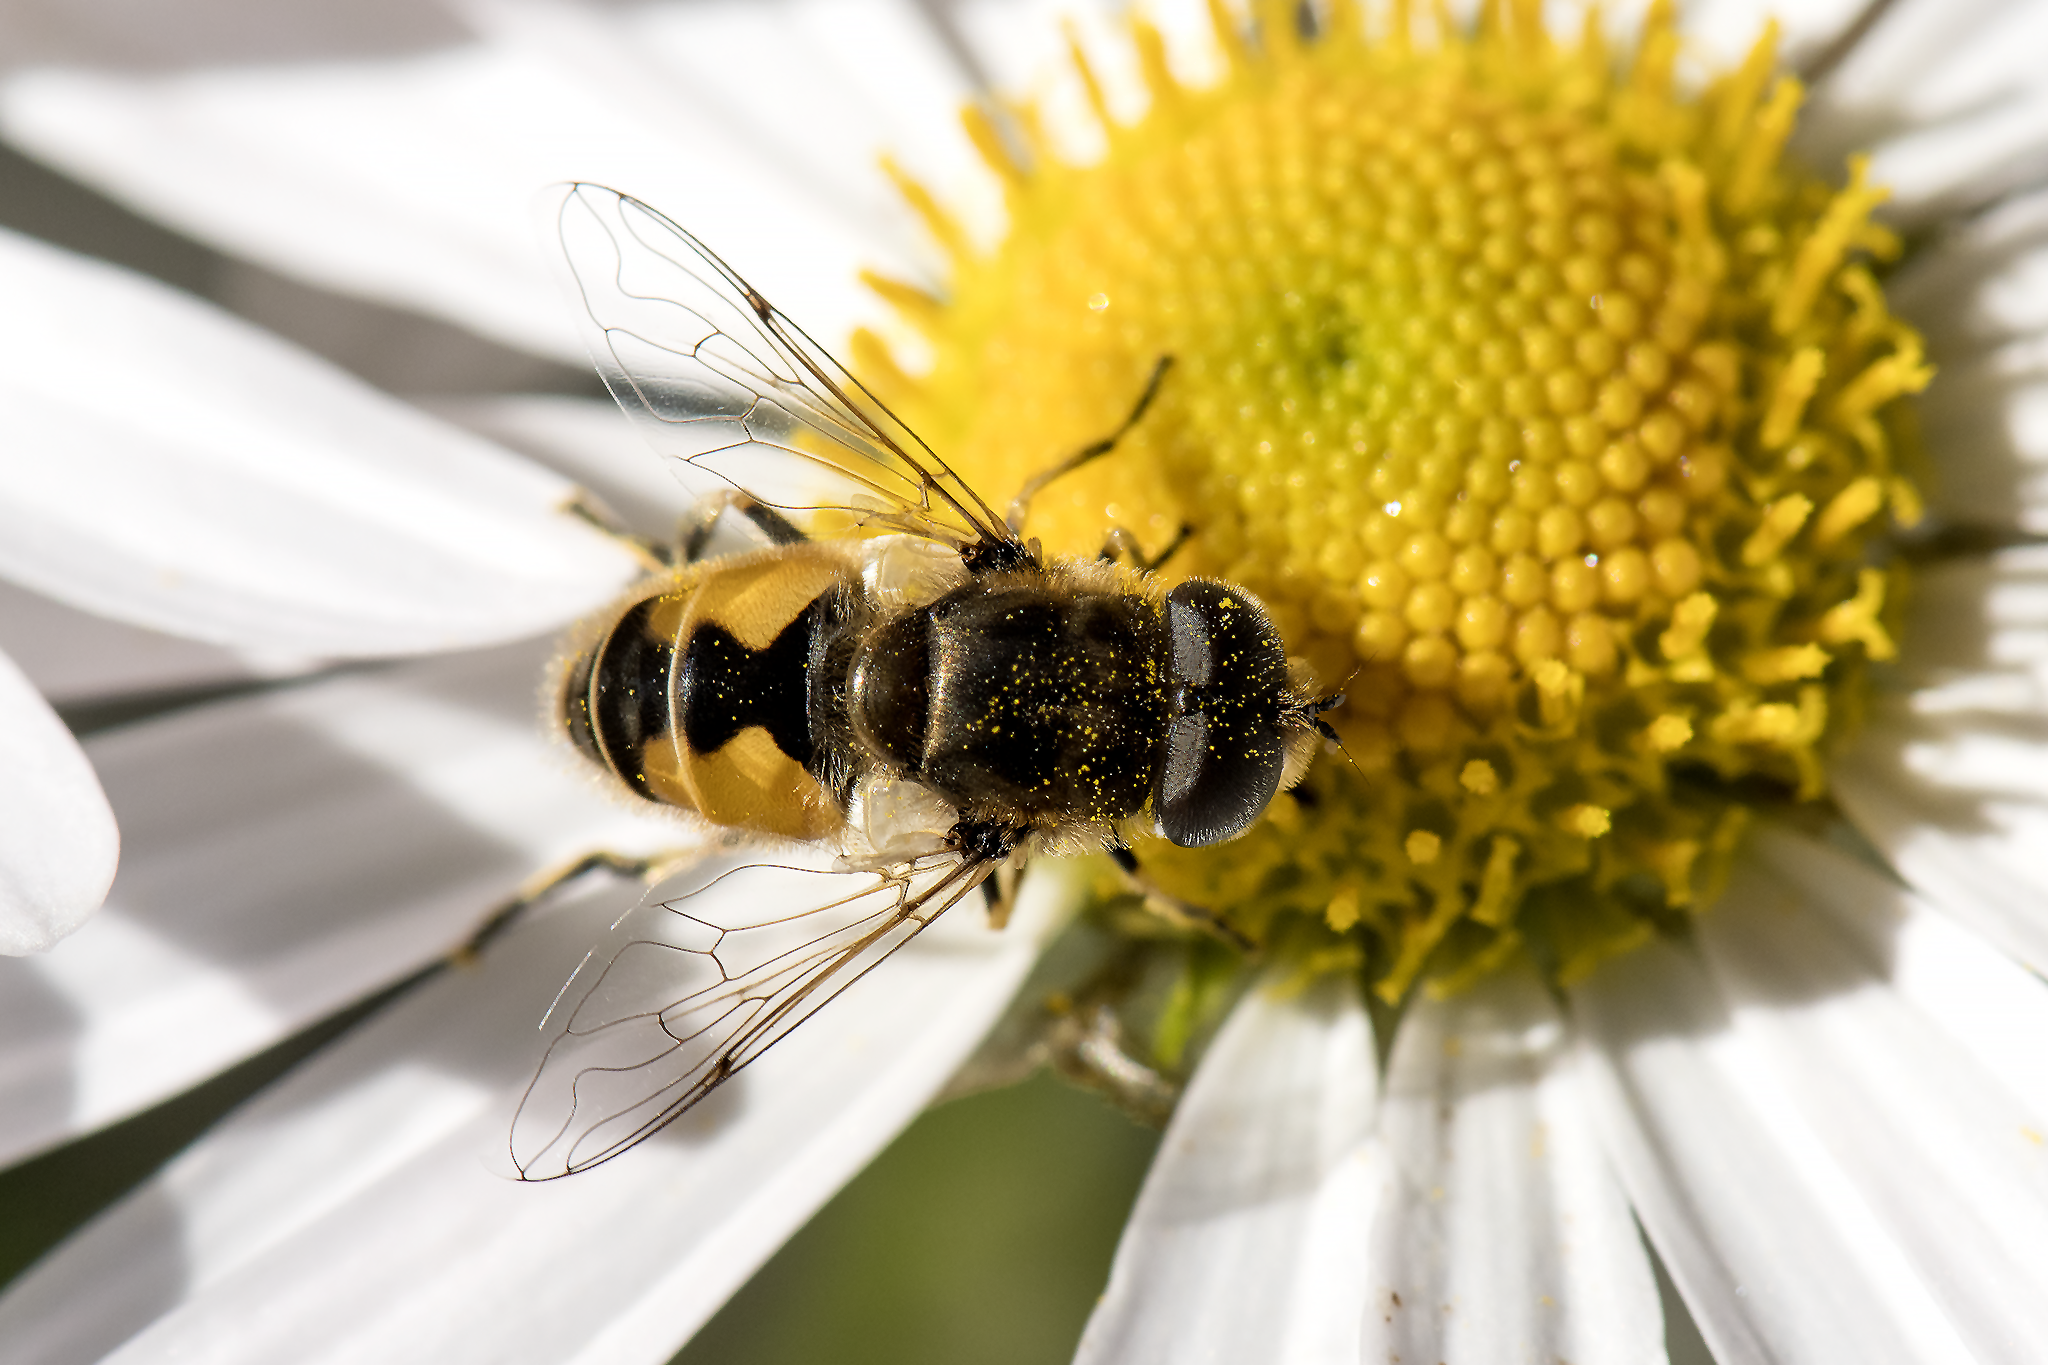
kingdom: Animalia
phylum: Arthropoda
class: Insecta
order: Diptera
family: Syrphidae
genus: Eristalis
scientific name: Eristalis arbustorum
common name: Hover fly
